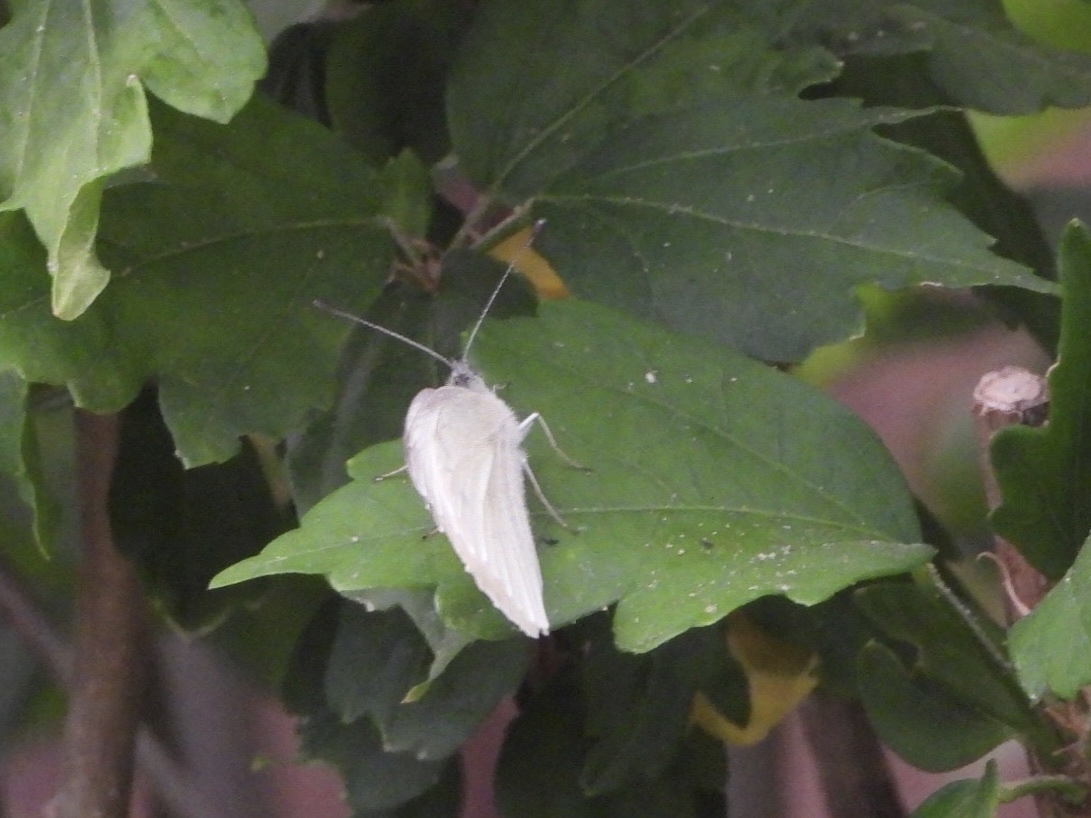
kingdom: Animalia
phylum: Arthropoda
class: Insecta
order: Lepidoptera
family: Pieridae
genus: Pieris
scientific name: Pieris marginalis
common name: Margined white
